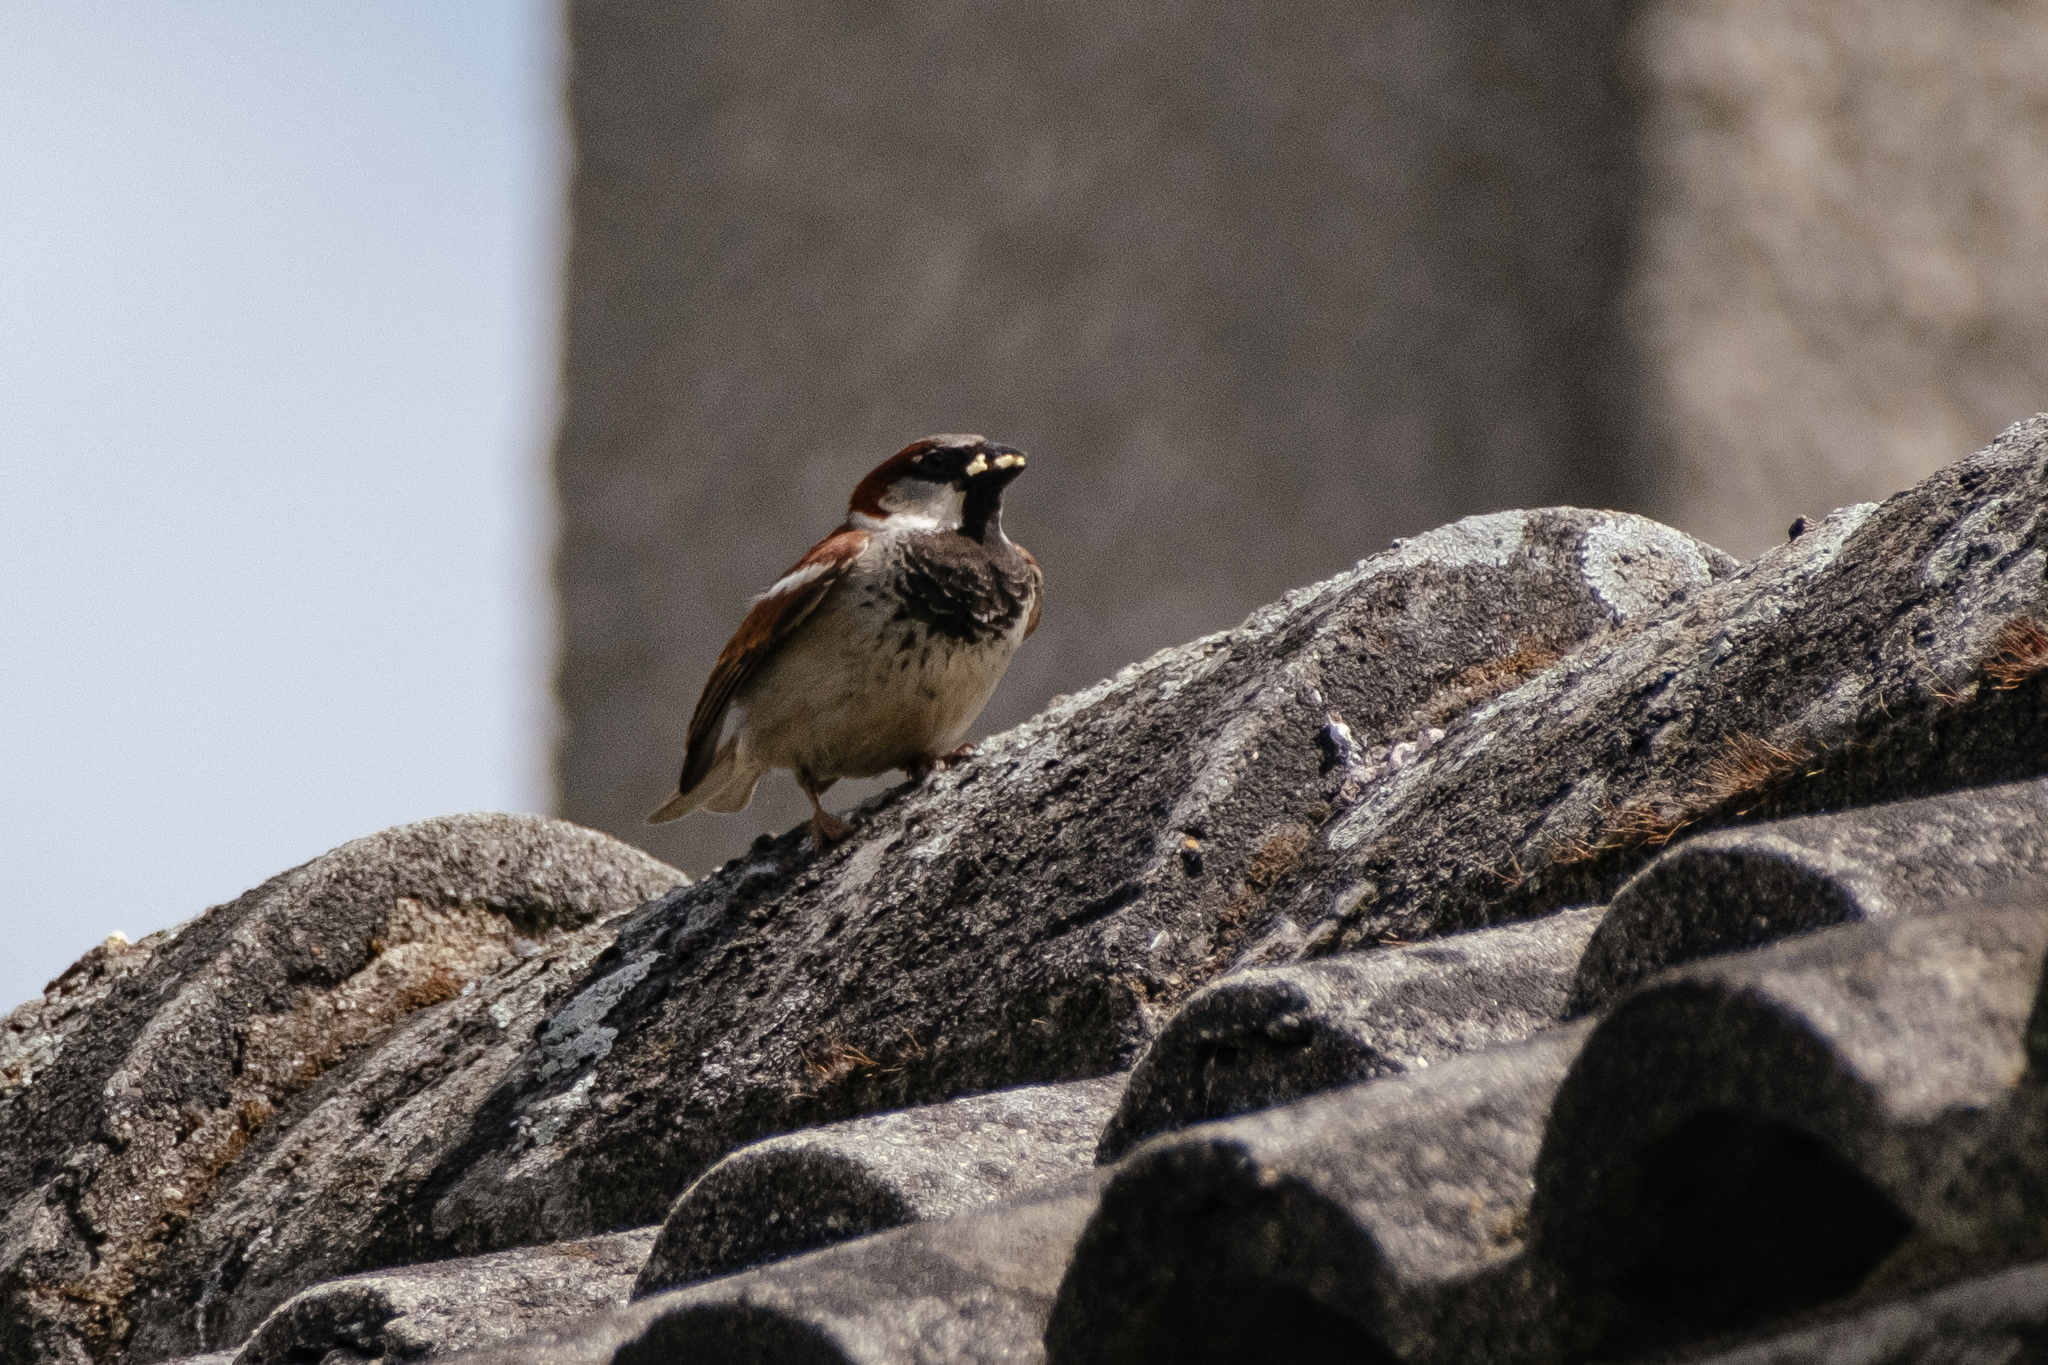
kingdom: Animalia
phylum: Chordata
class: Aves
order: Passeriformes
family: Passeridae
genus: Passer
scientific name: Passer domesticus
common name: House sparrow
